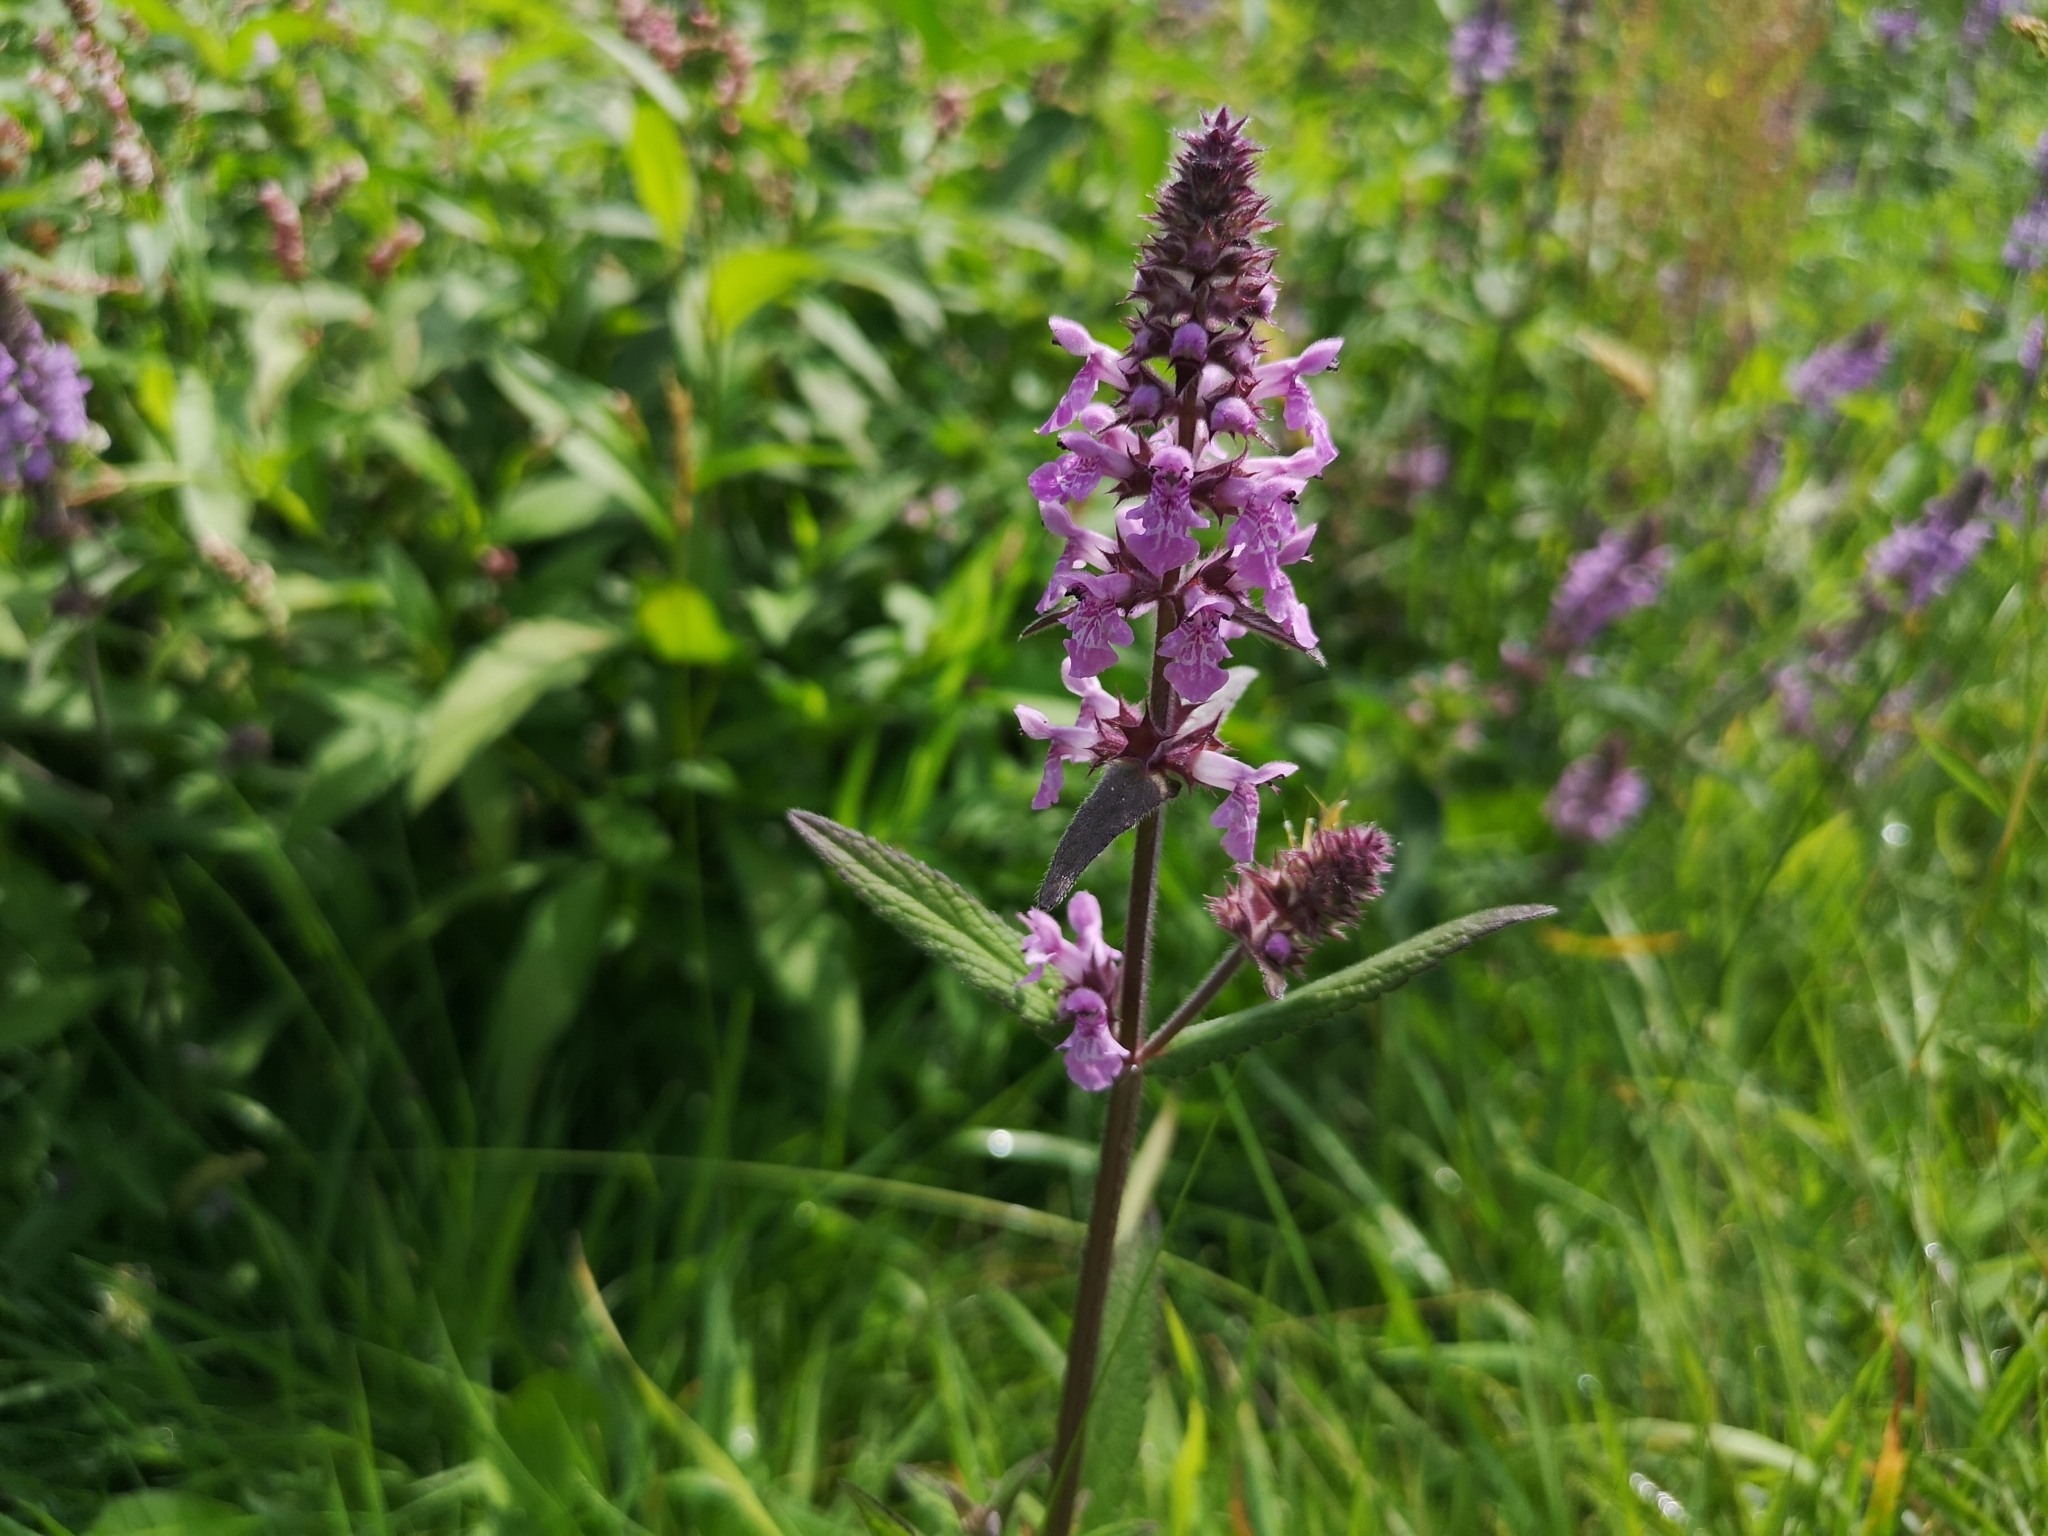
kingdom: Plantae
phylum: Tracheophyta
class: Magnoliopsida
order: Lamiales
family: Lamiaceae
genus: Stachys
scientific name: Stachys palustris
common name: Marsh woundwort
